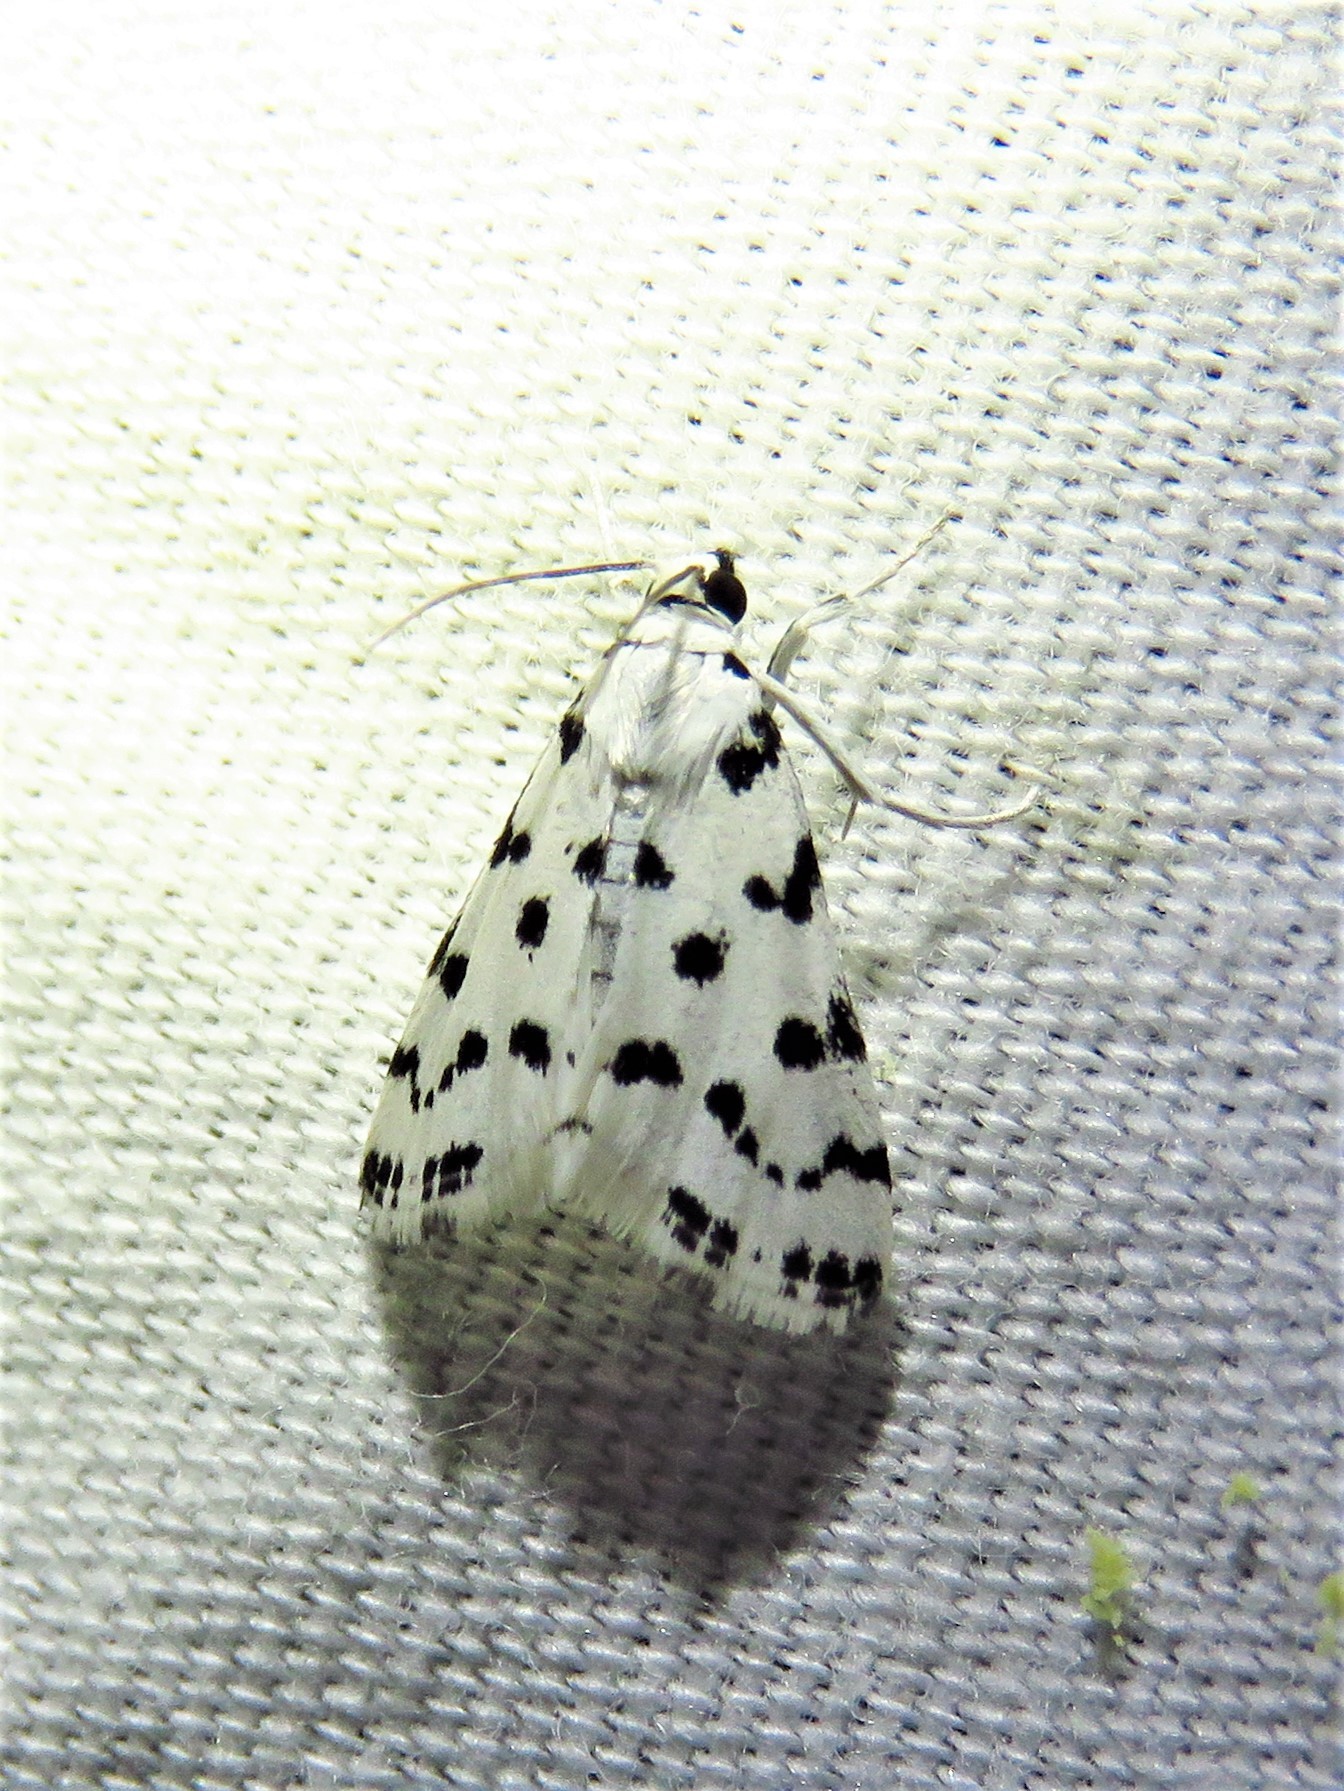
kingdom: Animalia
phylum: Arthropoda
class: Insecta
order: Lepidoptera
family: Crambidae
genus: Eustixia
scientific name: Eustixia pupula
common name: American cabbage pearl
